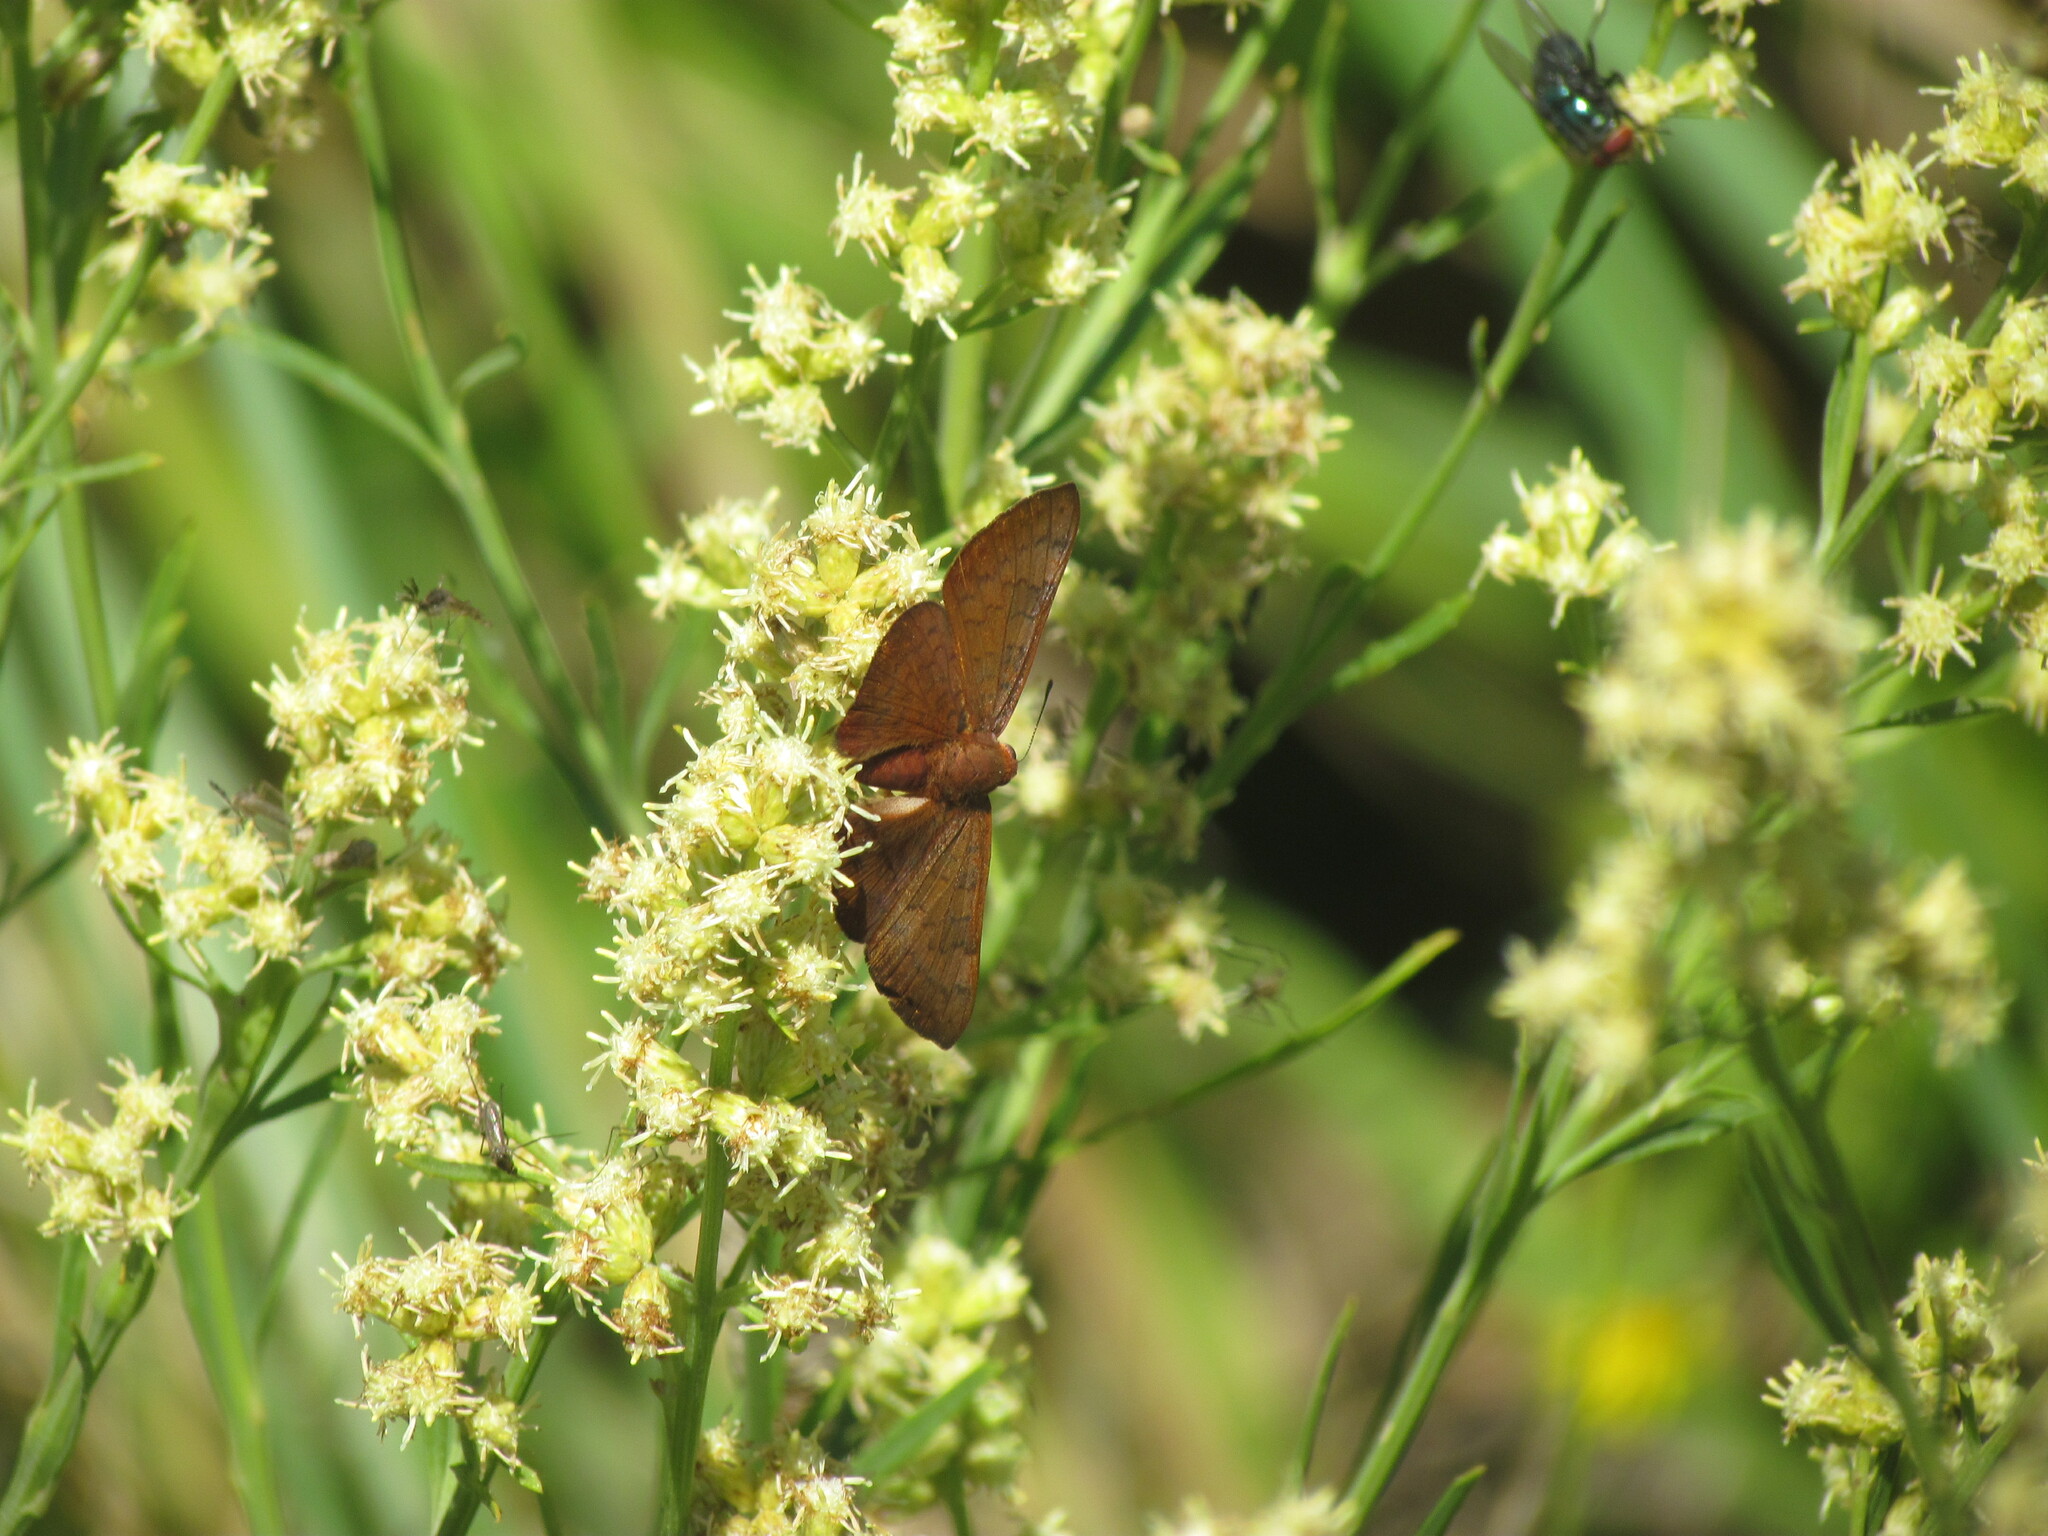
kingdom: Animalia
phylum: Arthropoda
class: Insecta
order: Lepidoptera
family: Lycaenidae
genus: Emesis
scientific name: Emesis russula
